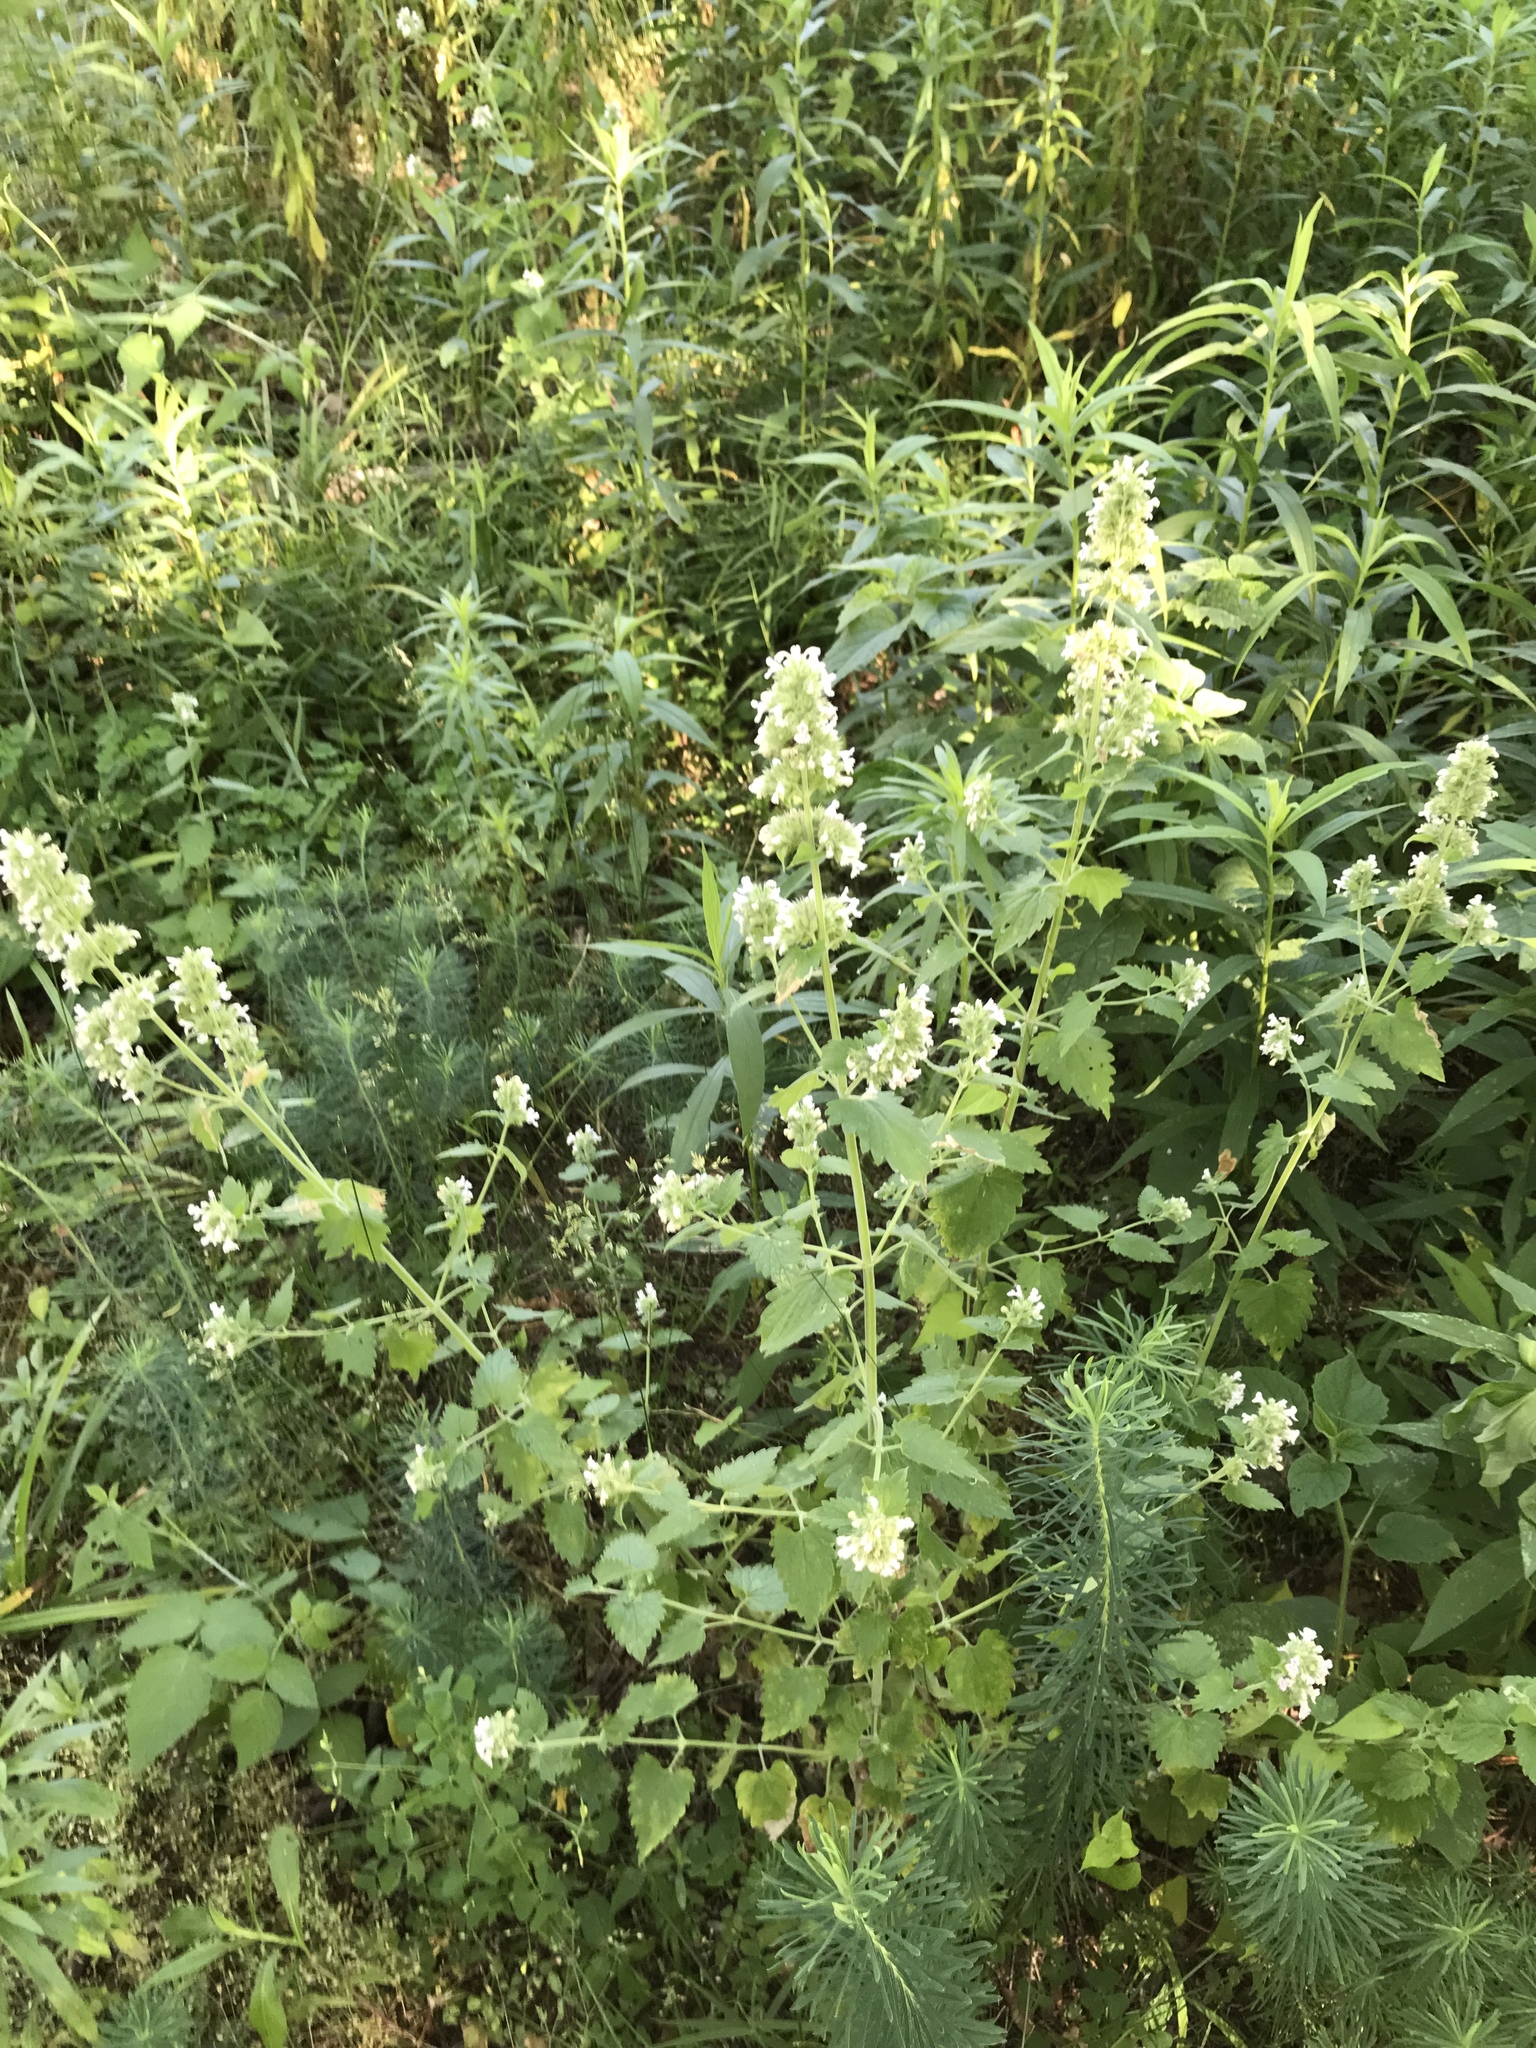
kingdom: Plantae
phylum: Tracheophyta
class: Magnoliopsida
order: Lamiales
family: Lamiaceae
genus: Nepeta
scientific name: Nepeta cataria
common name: Catnip
